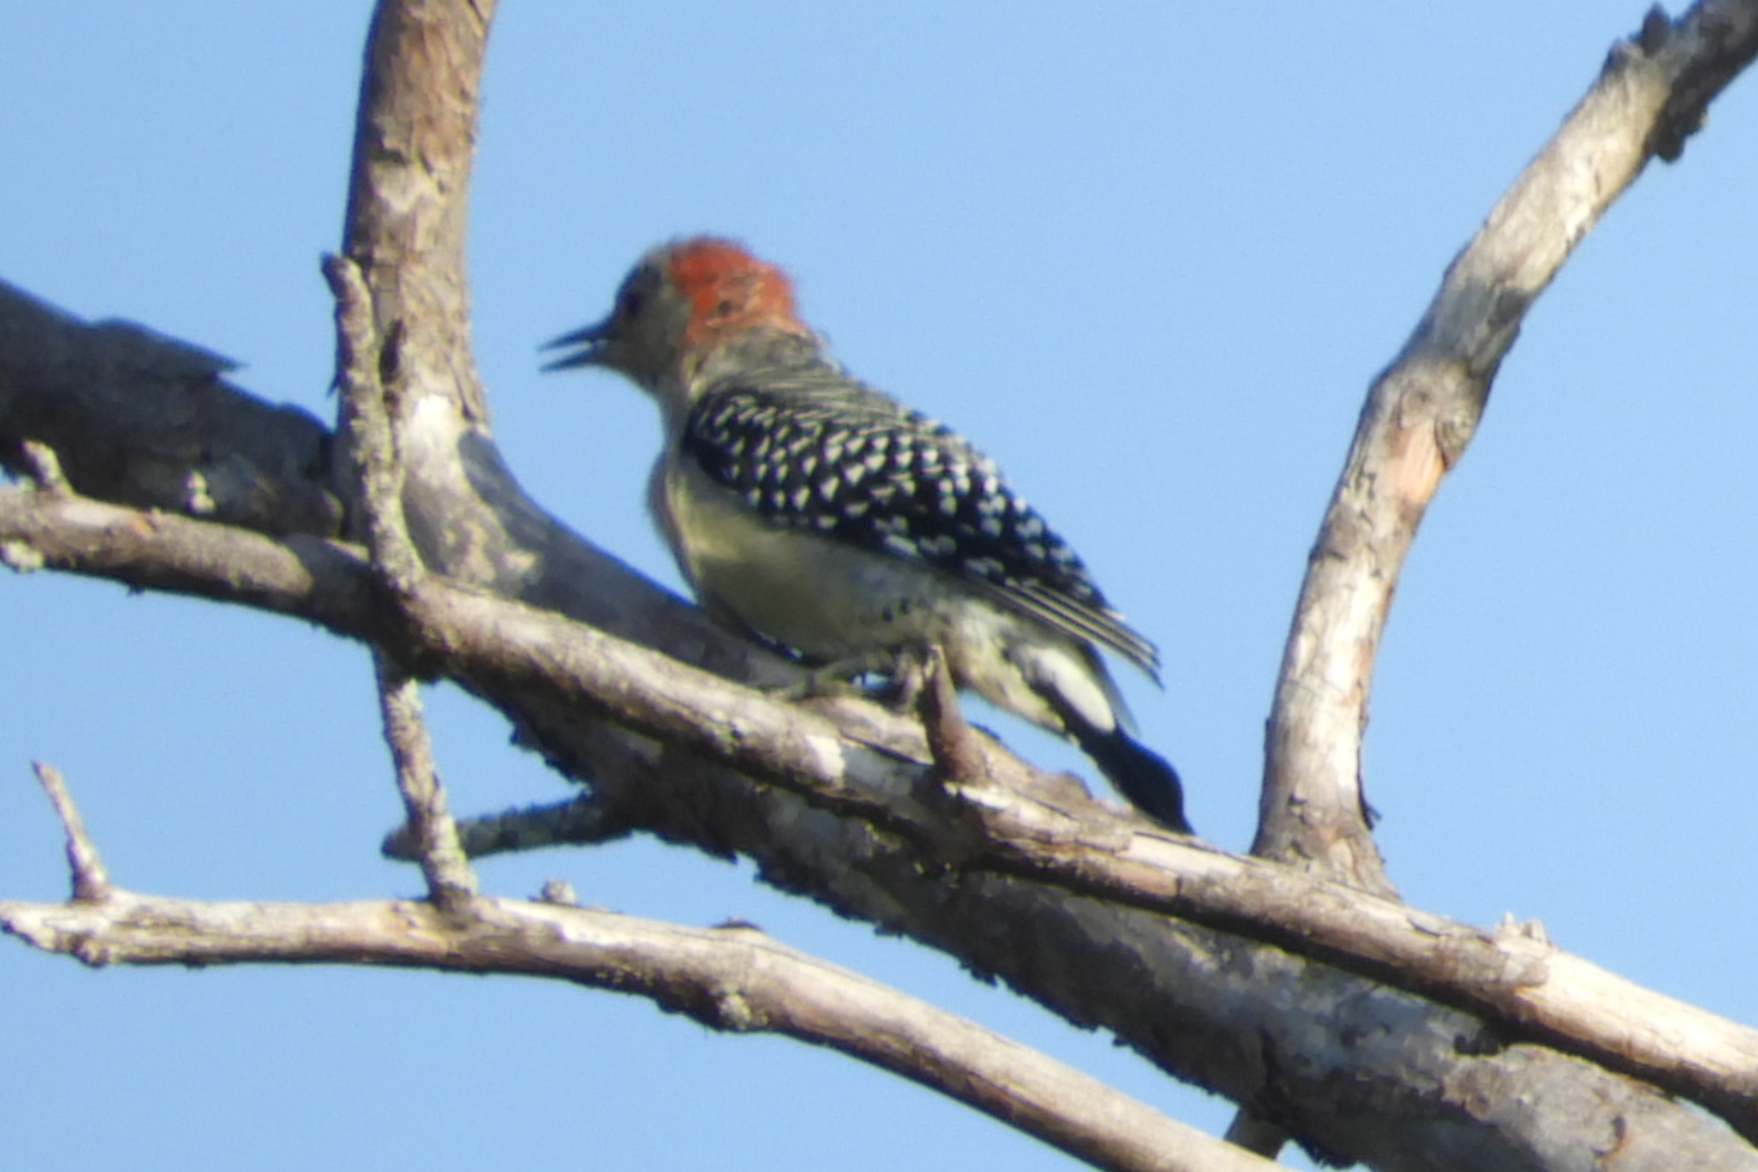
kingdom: Animalia
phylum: Chordata
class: Aves
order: Piciformes
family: Picidae
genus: Melanerpes
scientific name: Melanerpes carolinus
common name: Red-bellied woodpecker
